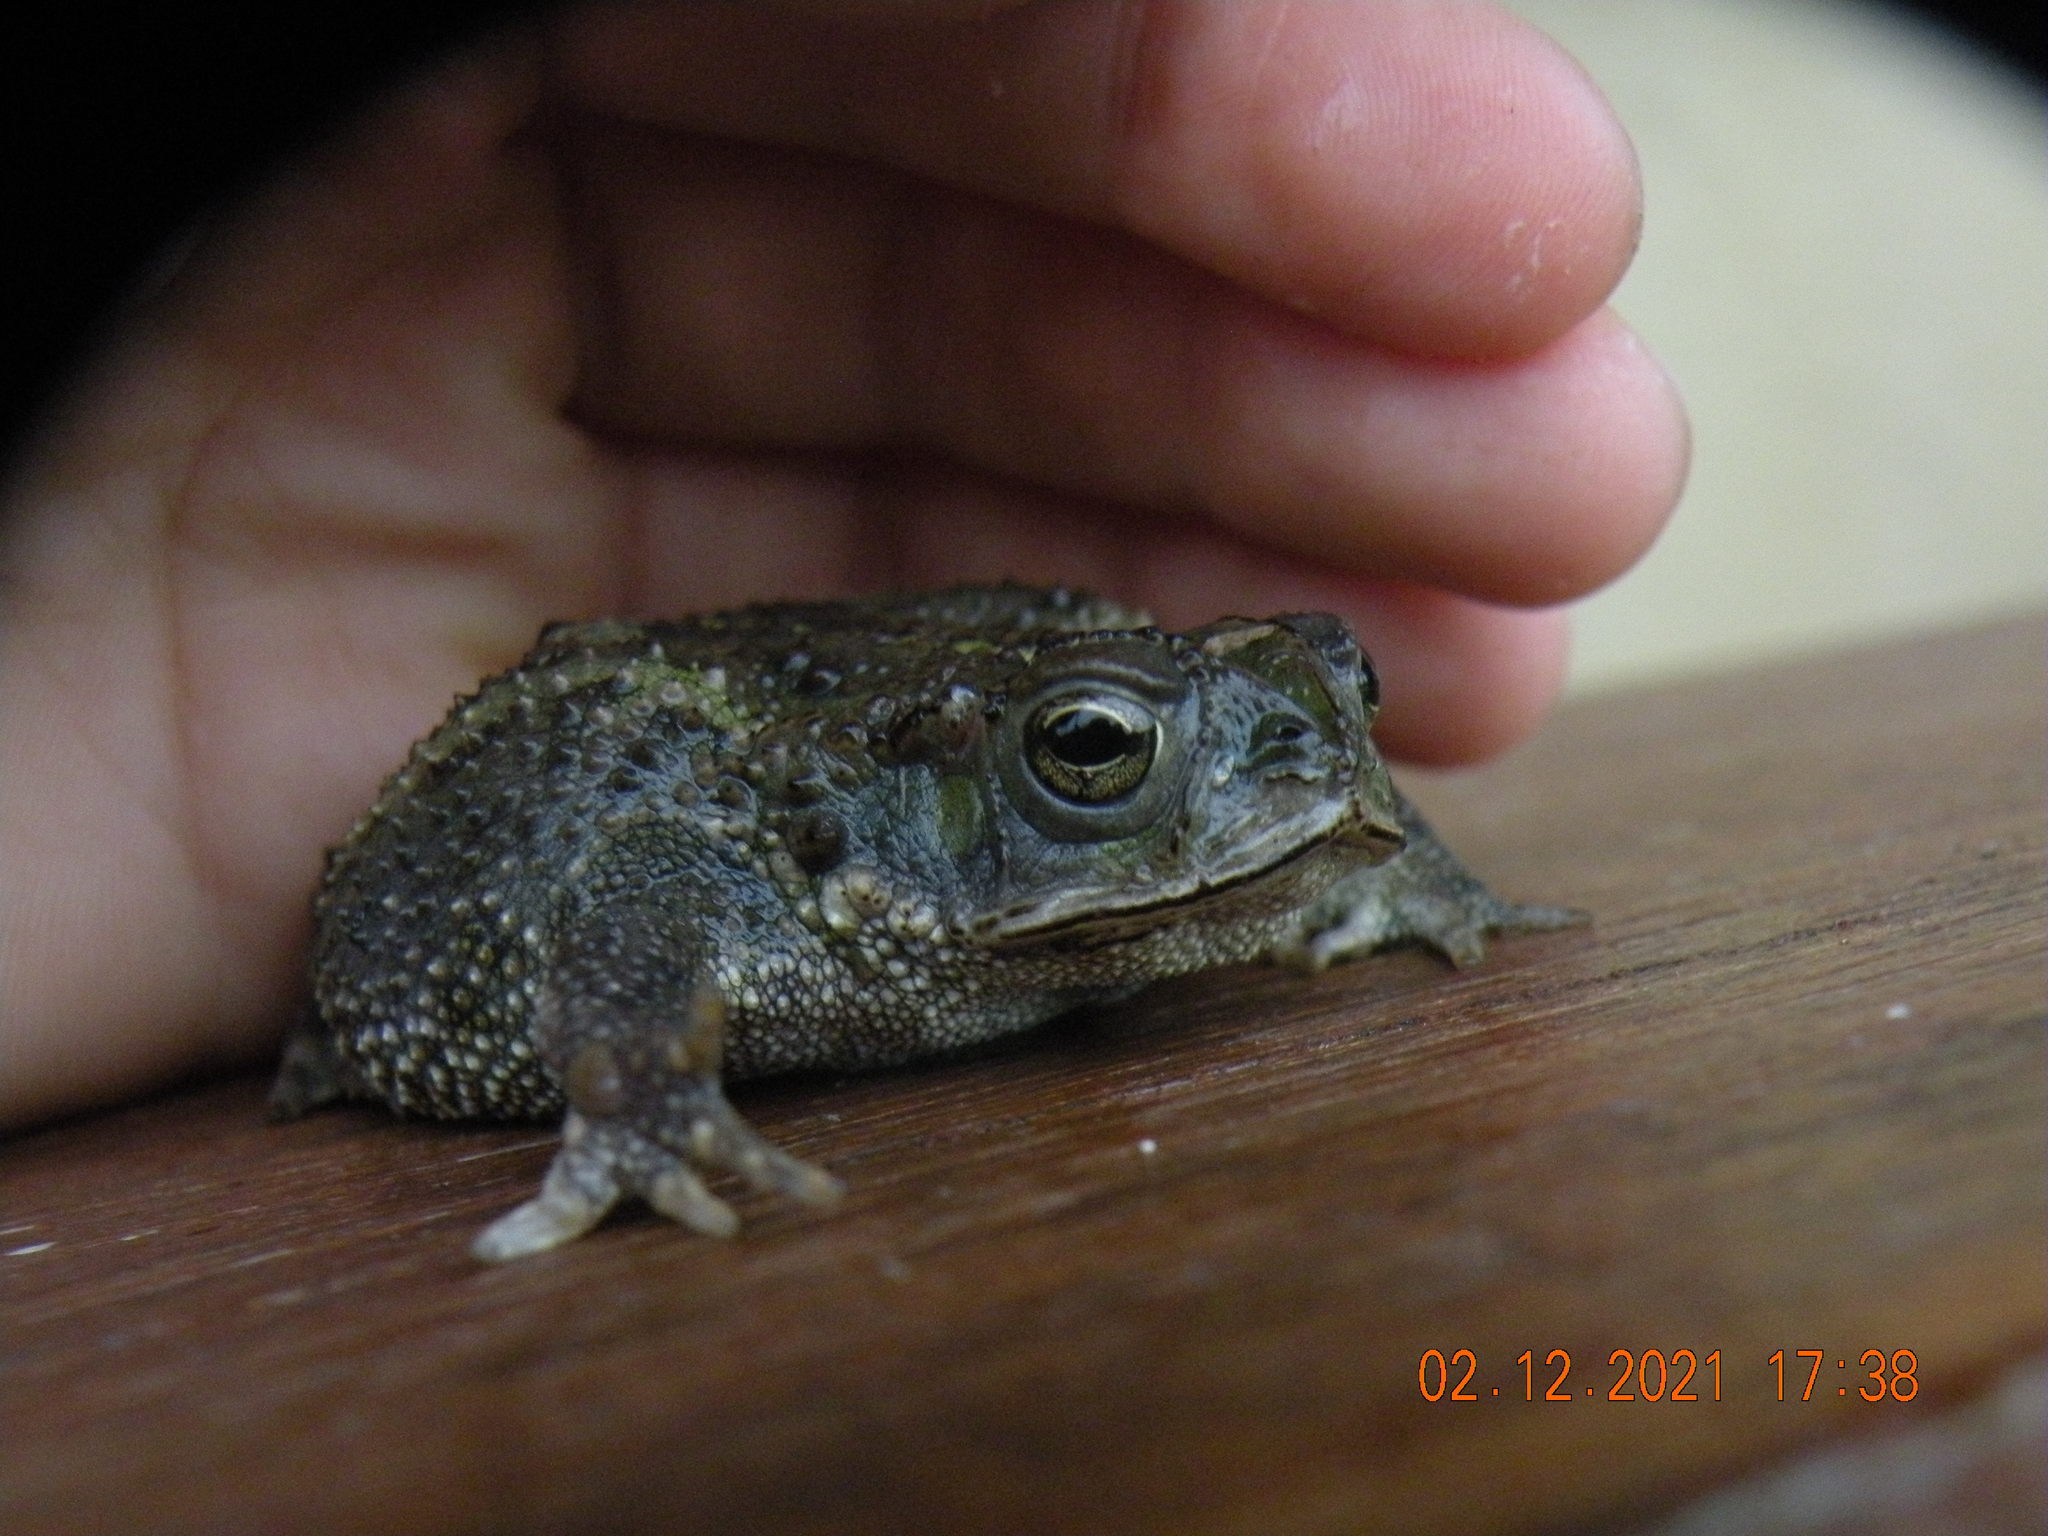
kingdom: Animalia
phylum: Chordata
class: Amphibia
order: Anura
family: Bufonidae
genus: Rhinella
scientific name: Rhinella dorbignyi
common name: D´orbigny’s toad
